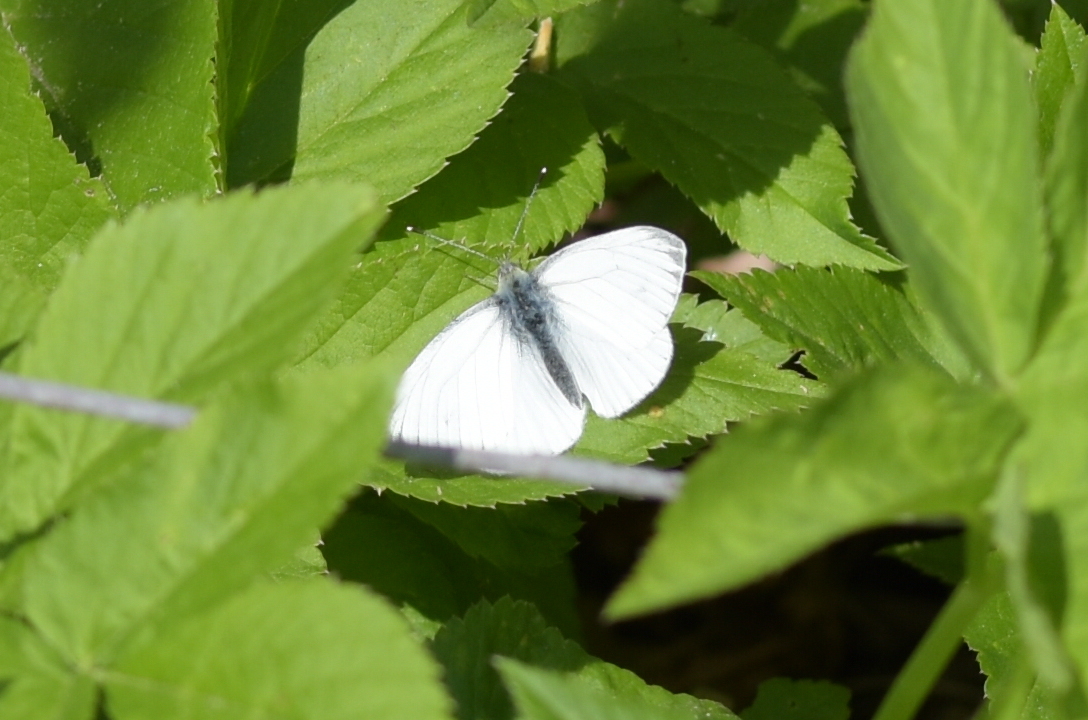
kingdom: Animalia
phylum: Arthropoda
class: Insecta
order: Lepidoptera
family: Pieridae
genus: Pieris
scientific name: Pieris napi
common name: Green-veined white
